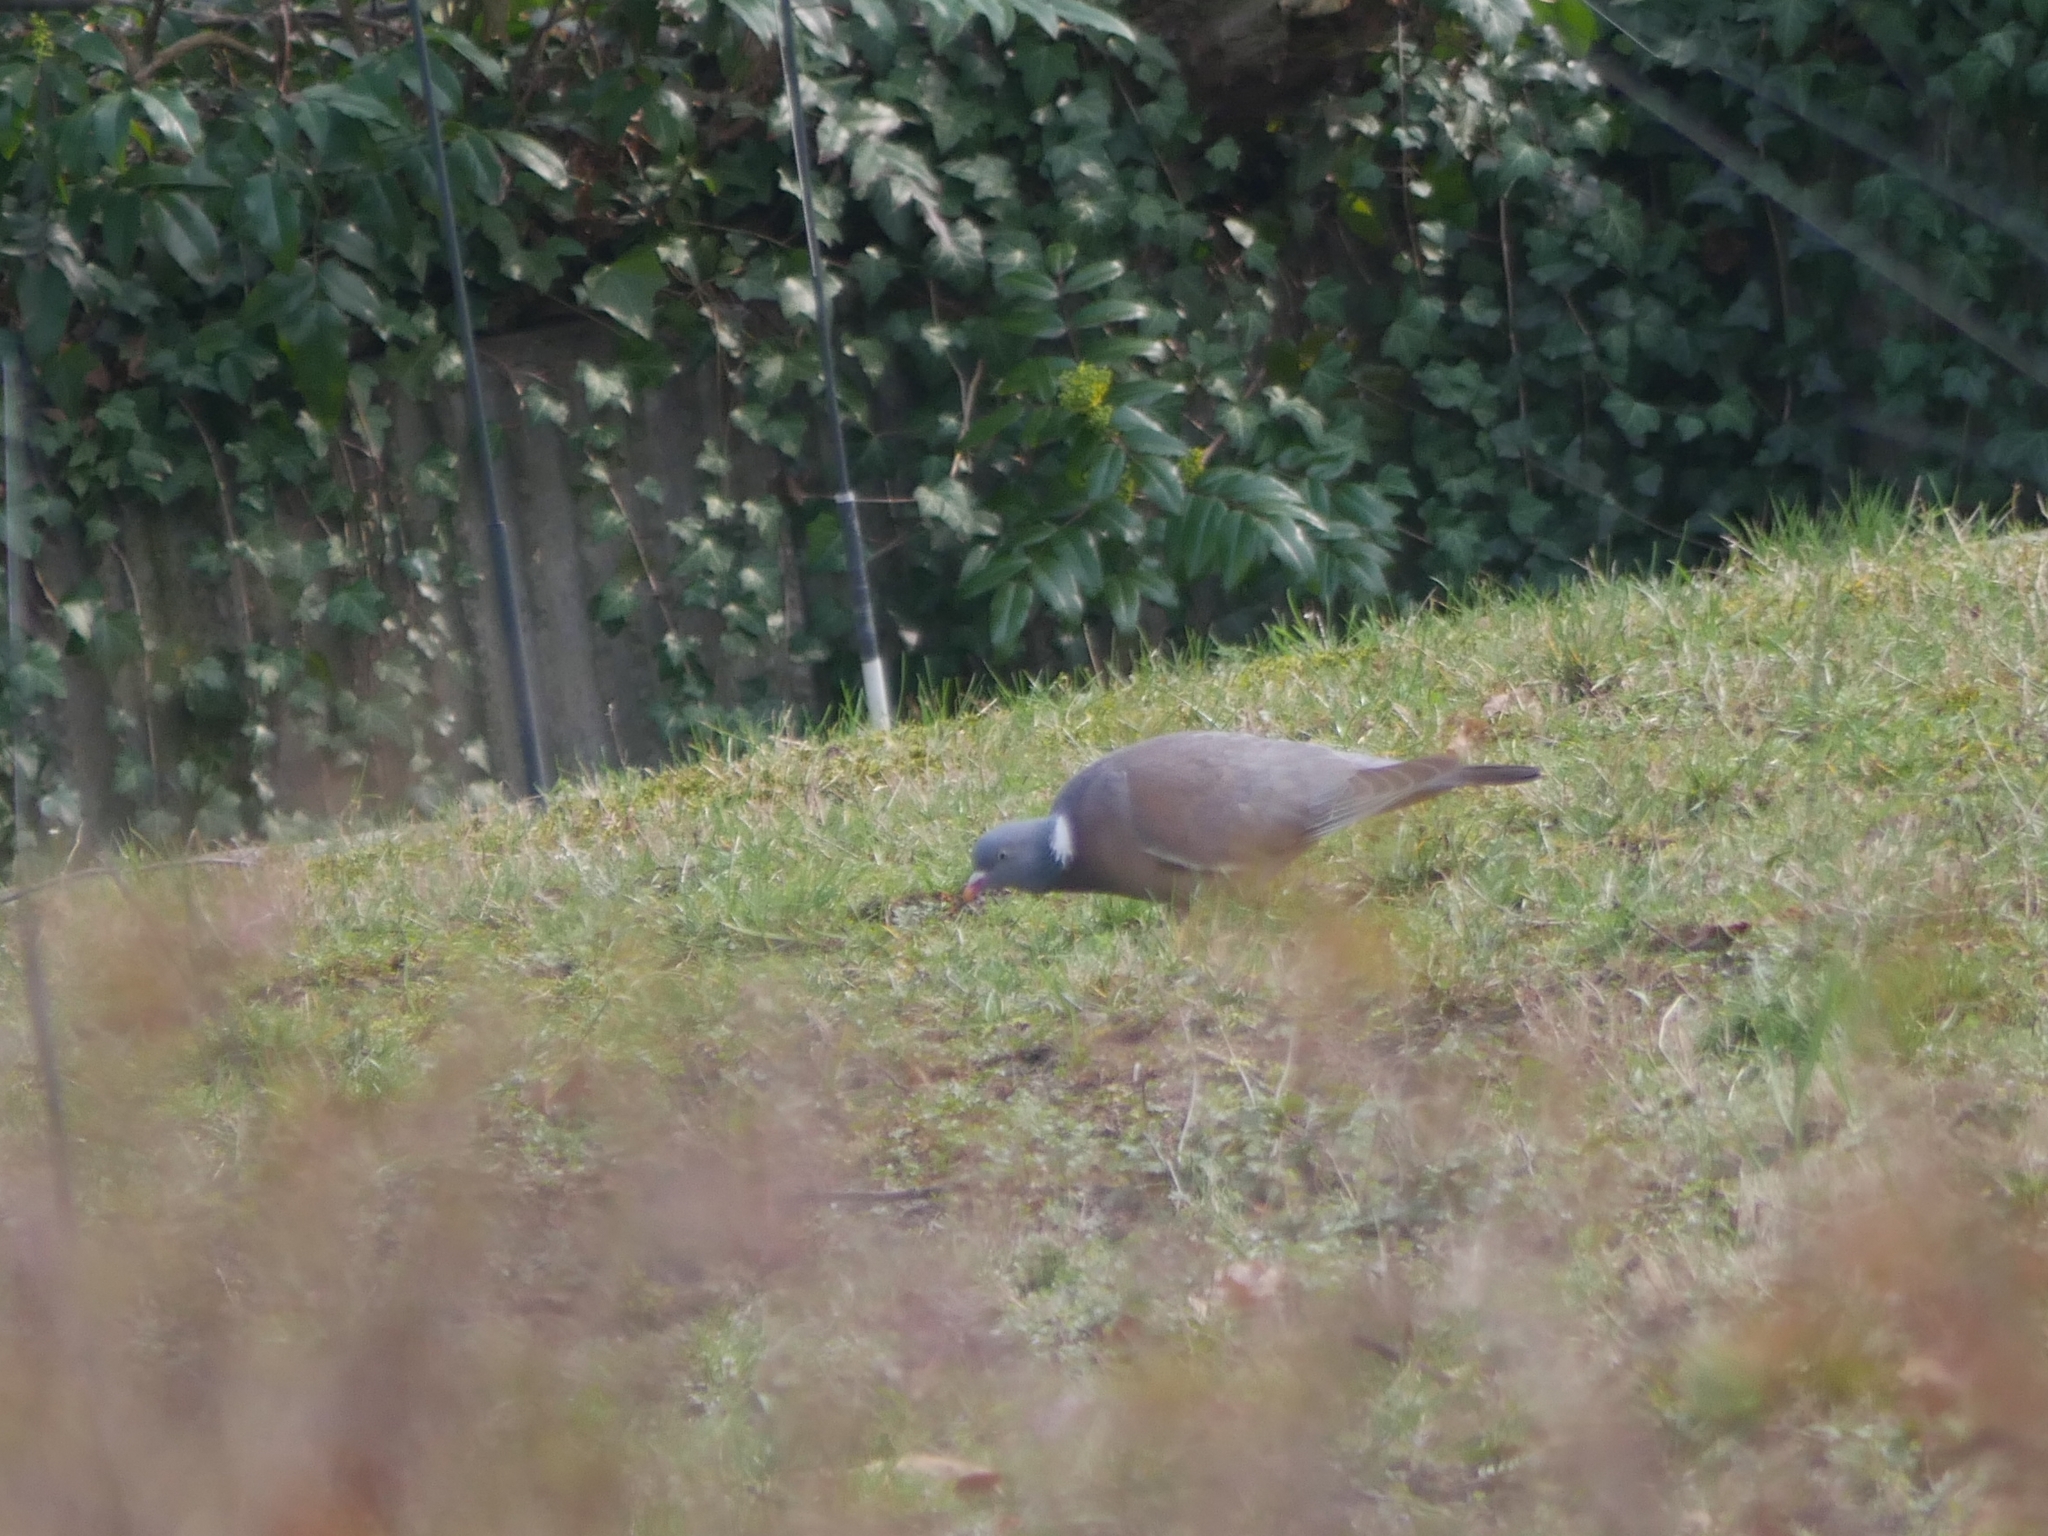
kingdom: Animalia
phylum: Chordata
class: Aves
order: Columbiformes
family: Columbidae
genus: Columba
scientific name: Columba palumbus
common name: Common wood pigeon
